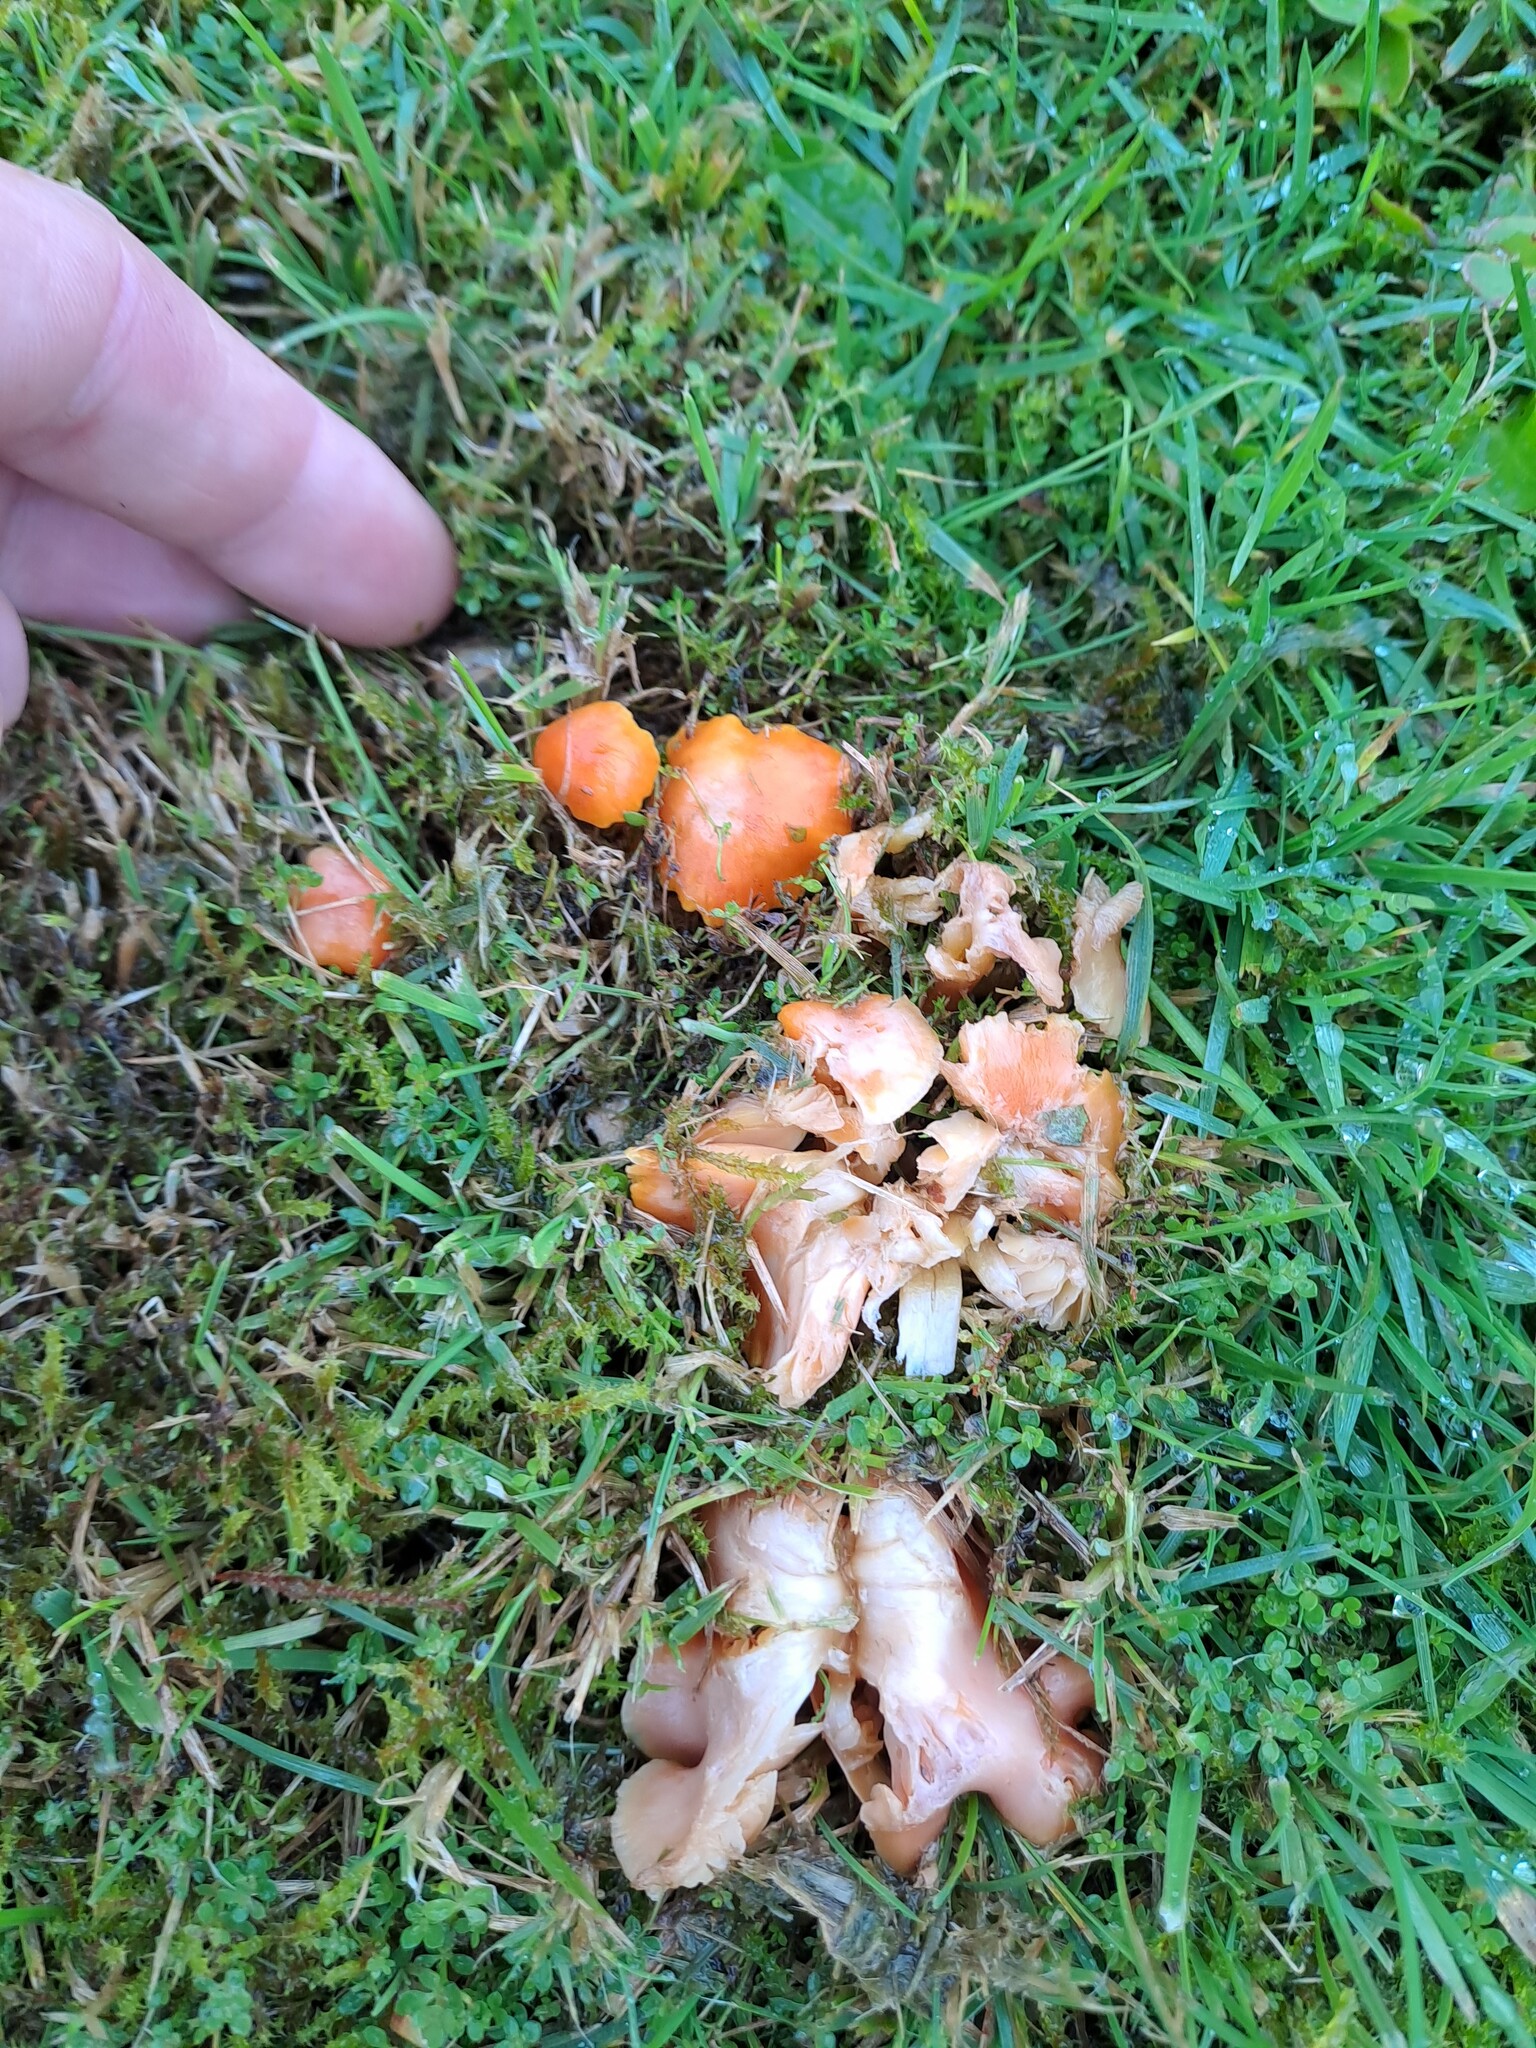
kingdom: Fungi
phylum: Basidiomycota
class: Agaricomycetes
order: Agaricales
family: Hygrophoraceae
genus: Hygrocybe
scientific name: Hygrocybe reidii
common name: Honey waxcap
